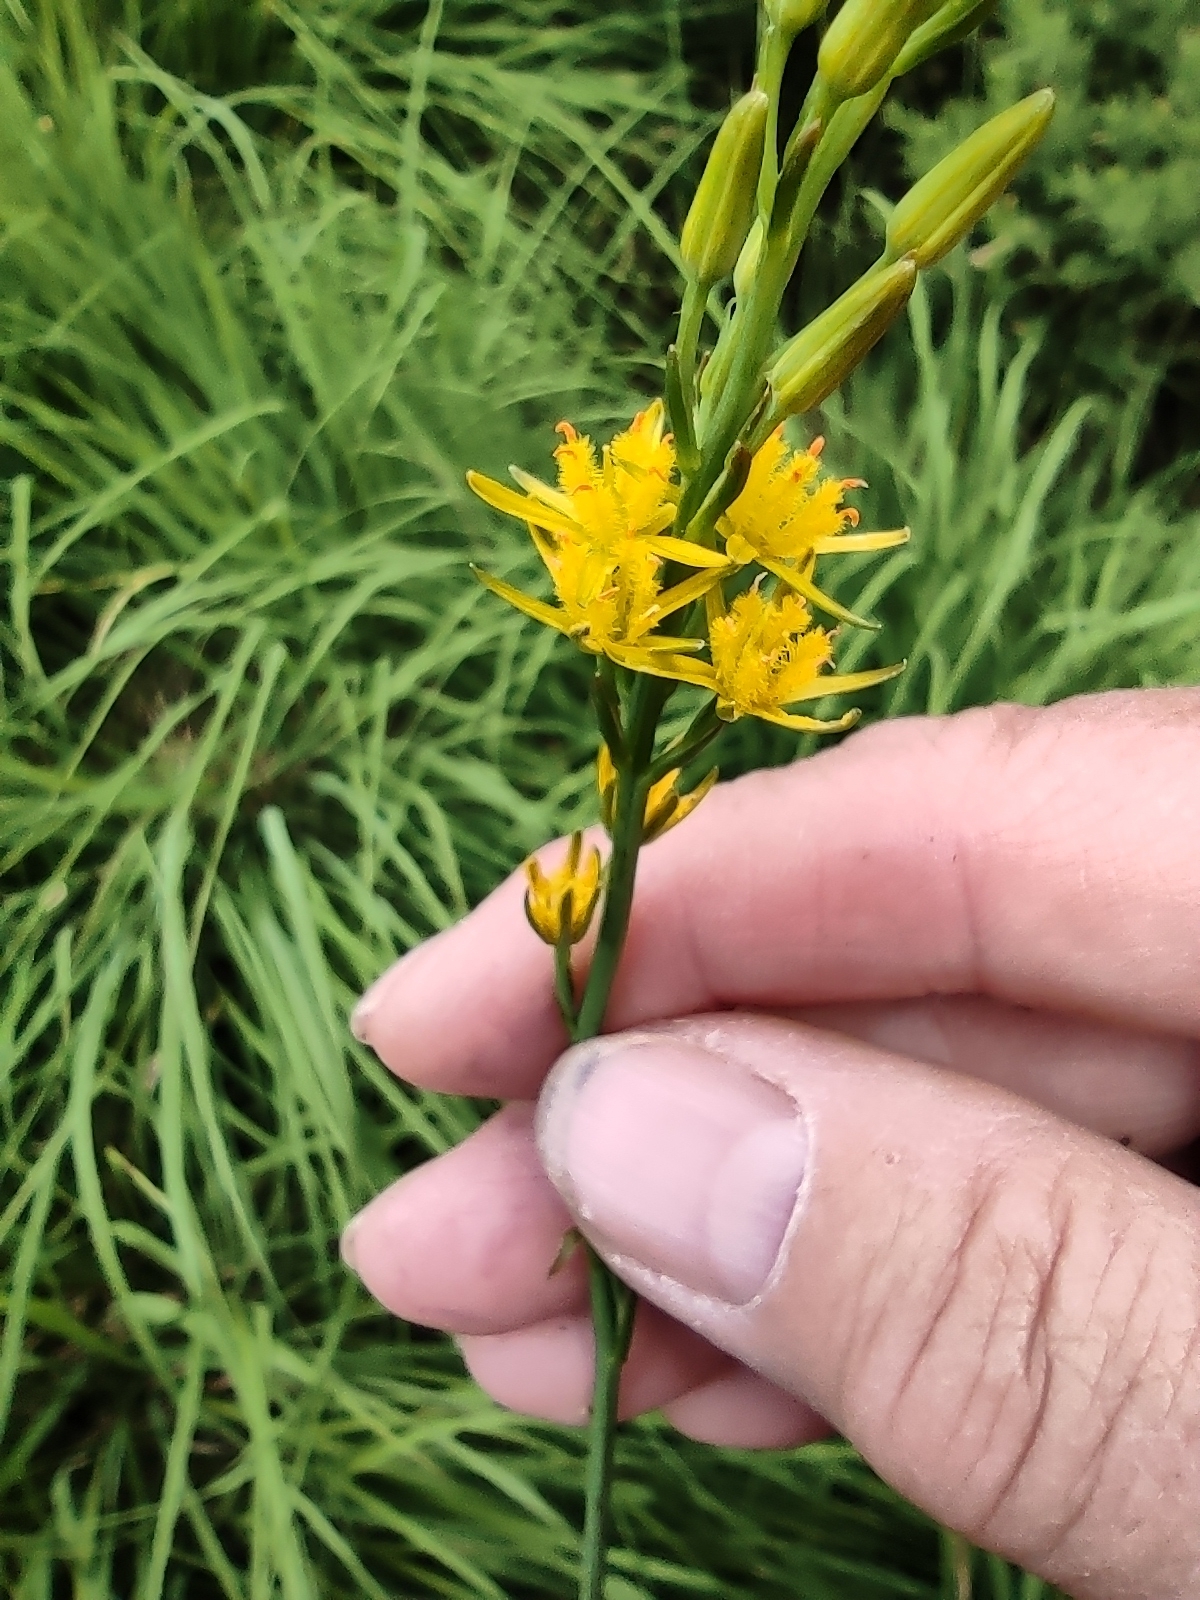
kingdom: Plantae
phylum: Tracheophyta
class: Liliopsida
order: Dioscoreales
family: Nartheciaceae
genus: Narthecium
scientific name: Narthecium ossifragum
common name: Bog asphodel
